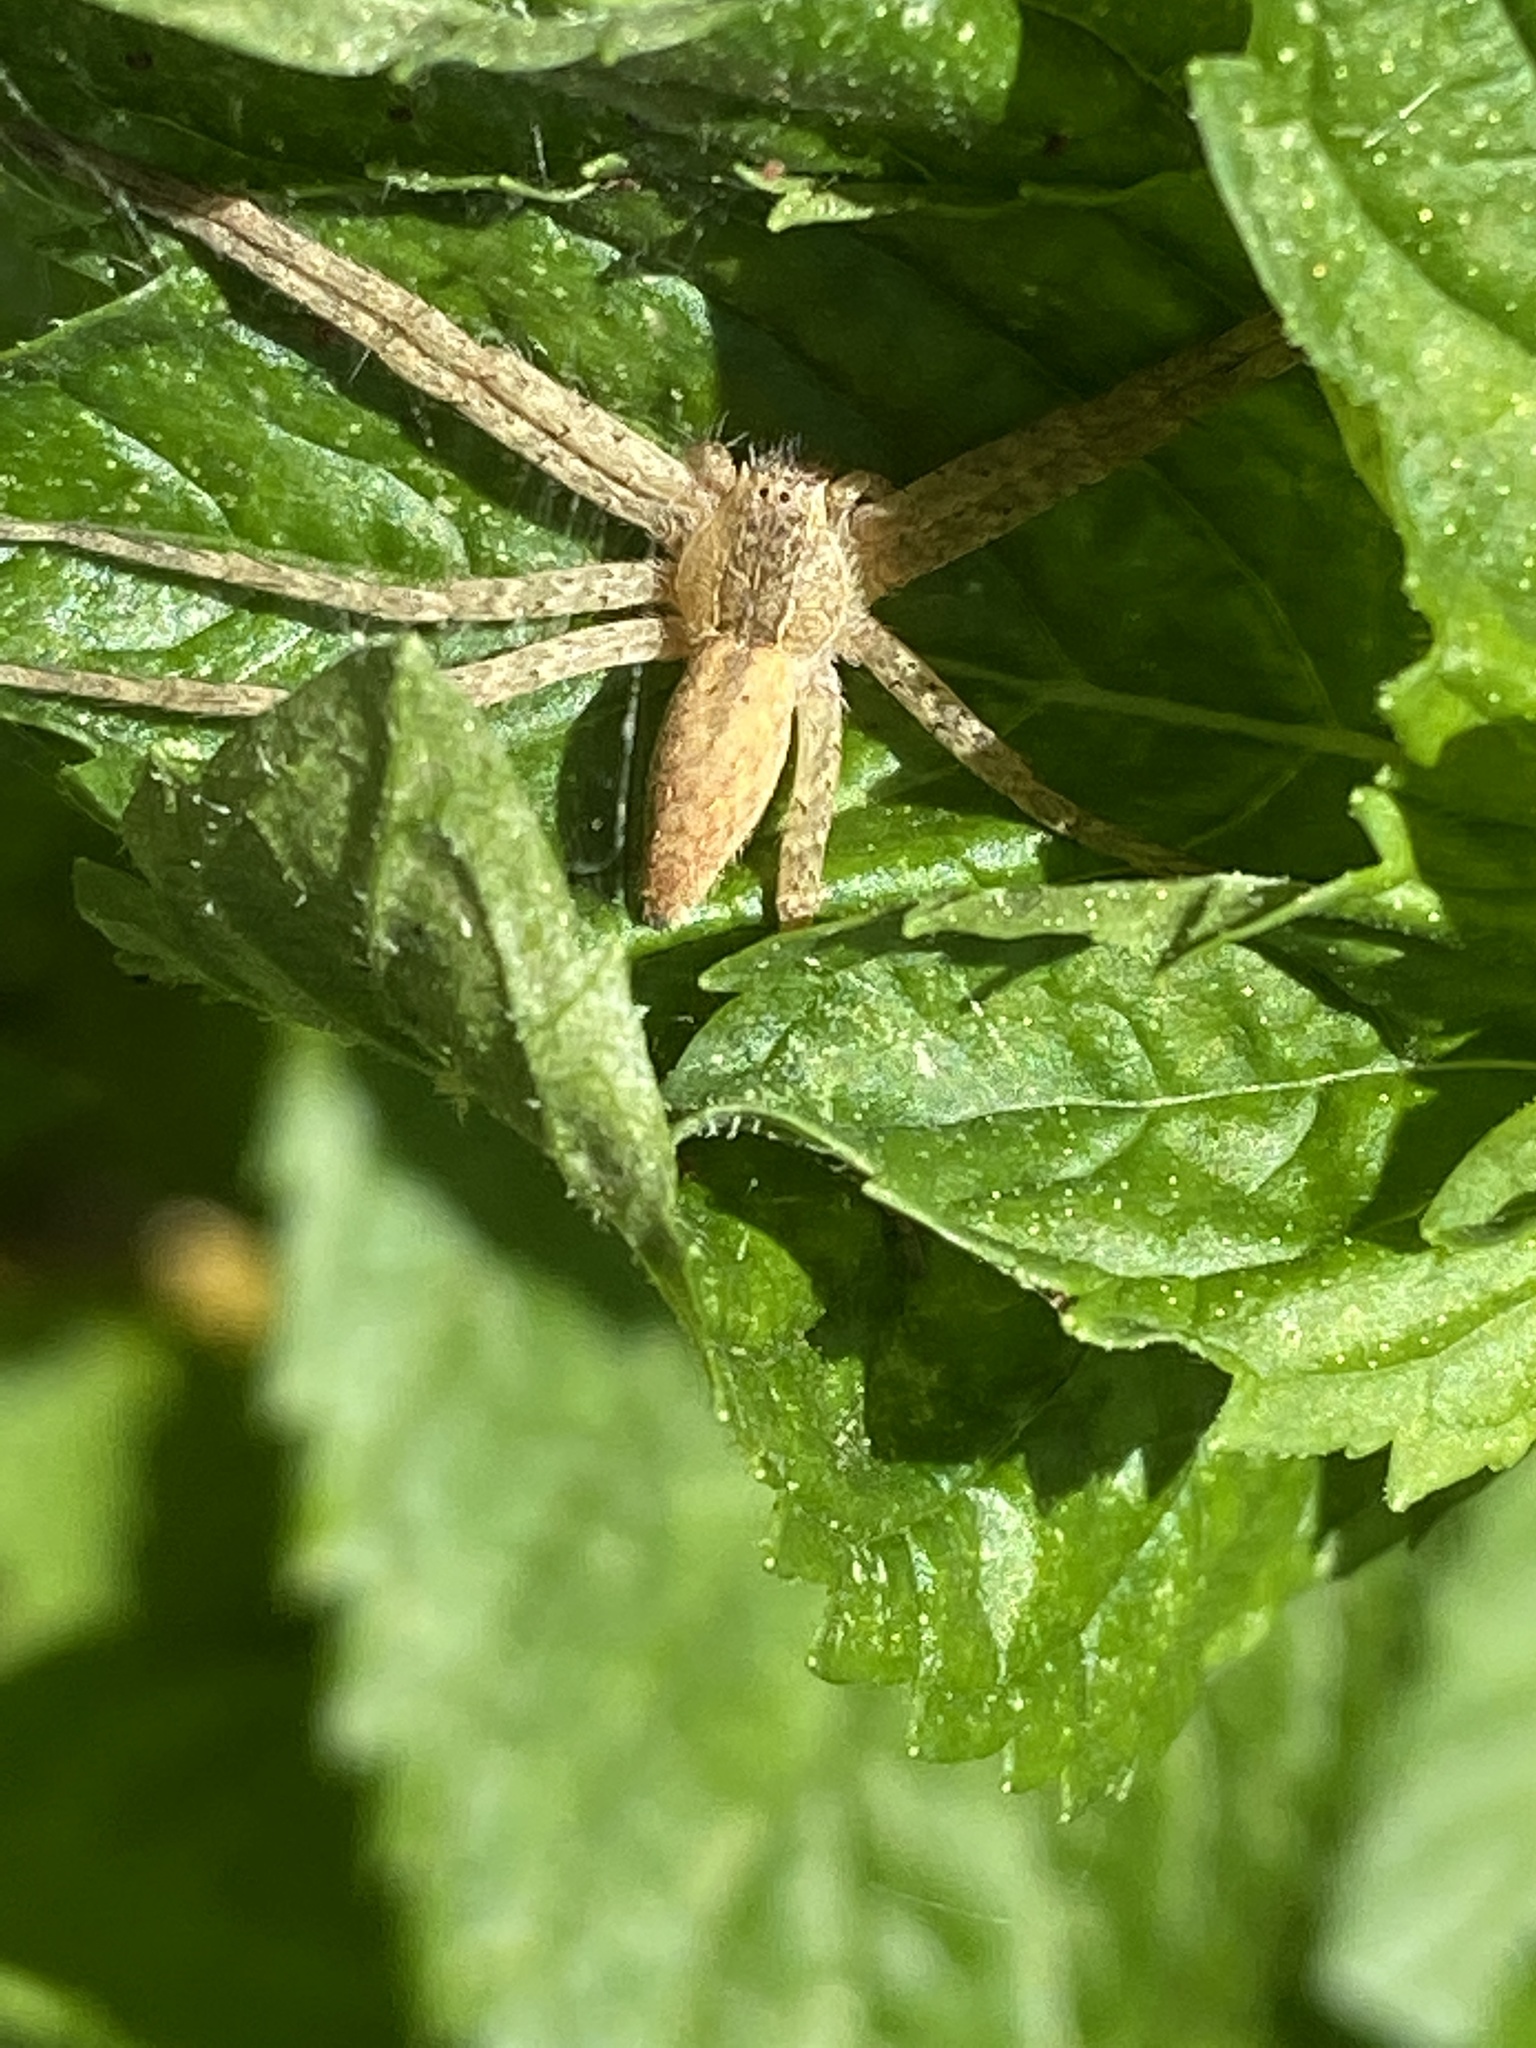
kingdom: Animalia
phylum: Arthropoda
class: Arachnida
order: Araneae
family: Pisauridae
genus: Pisaurina
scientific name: Pisaurina mira
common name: American nursery web spider
